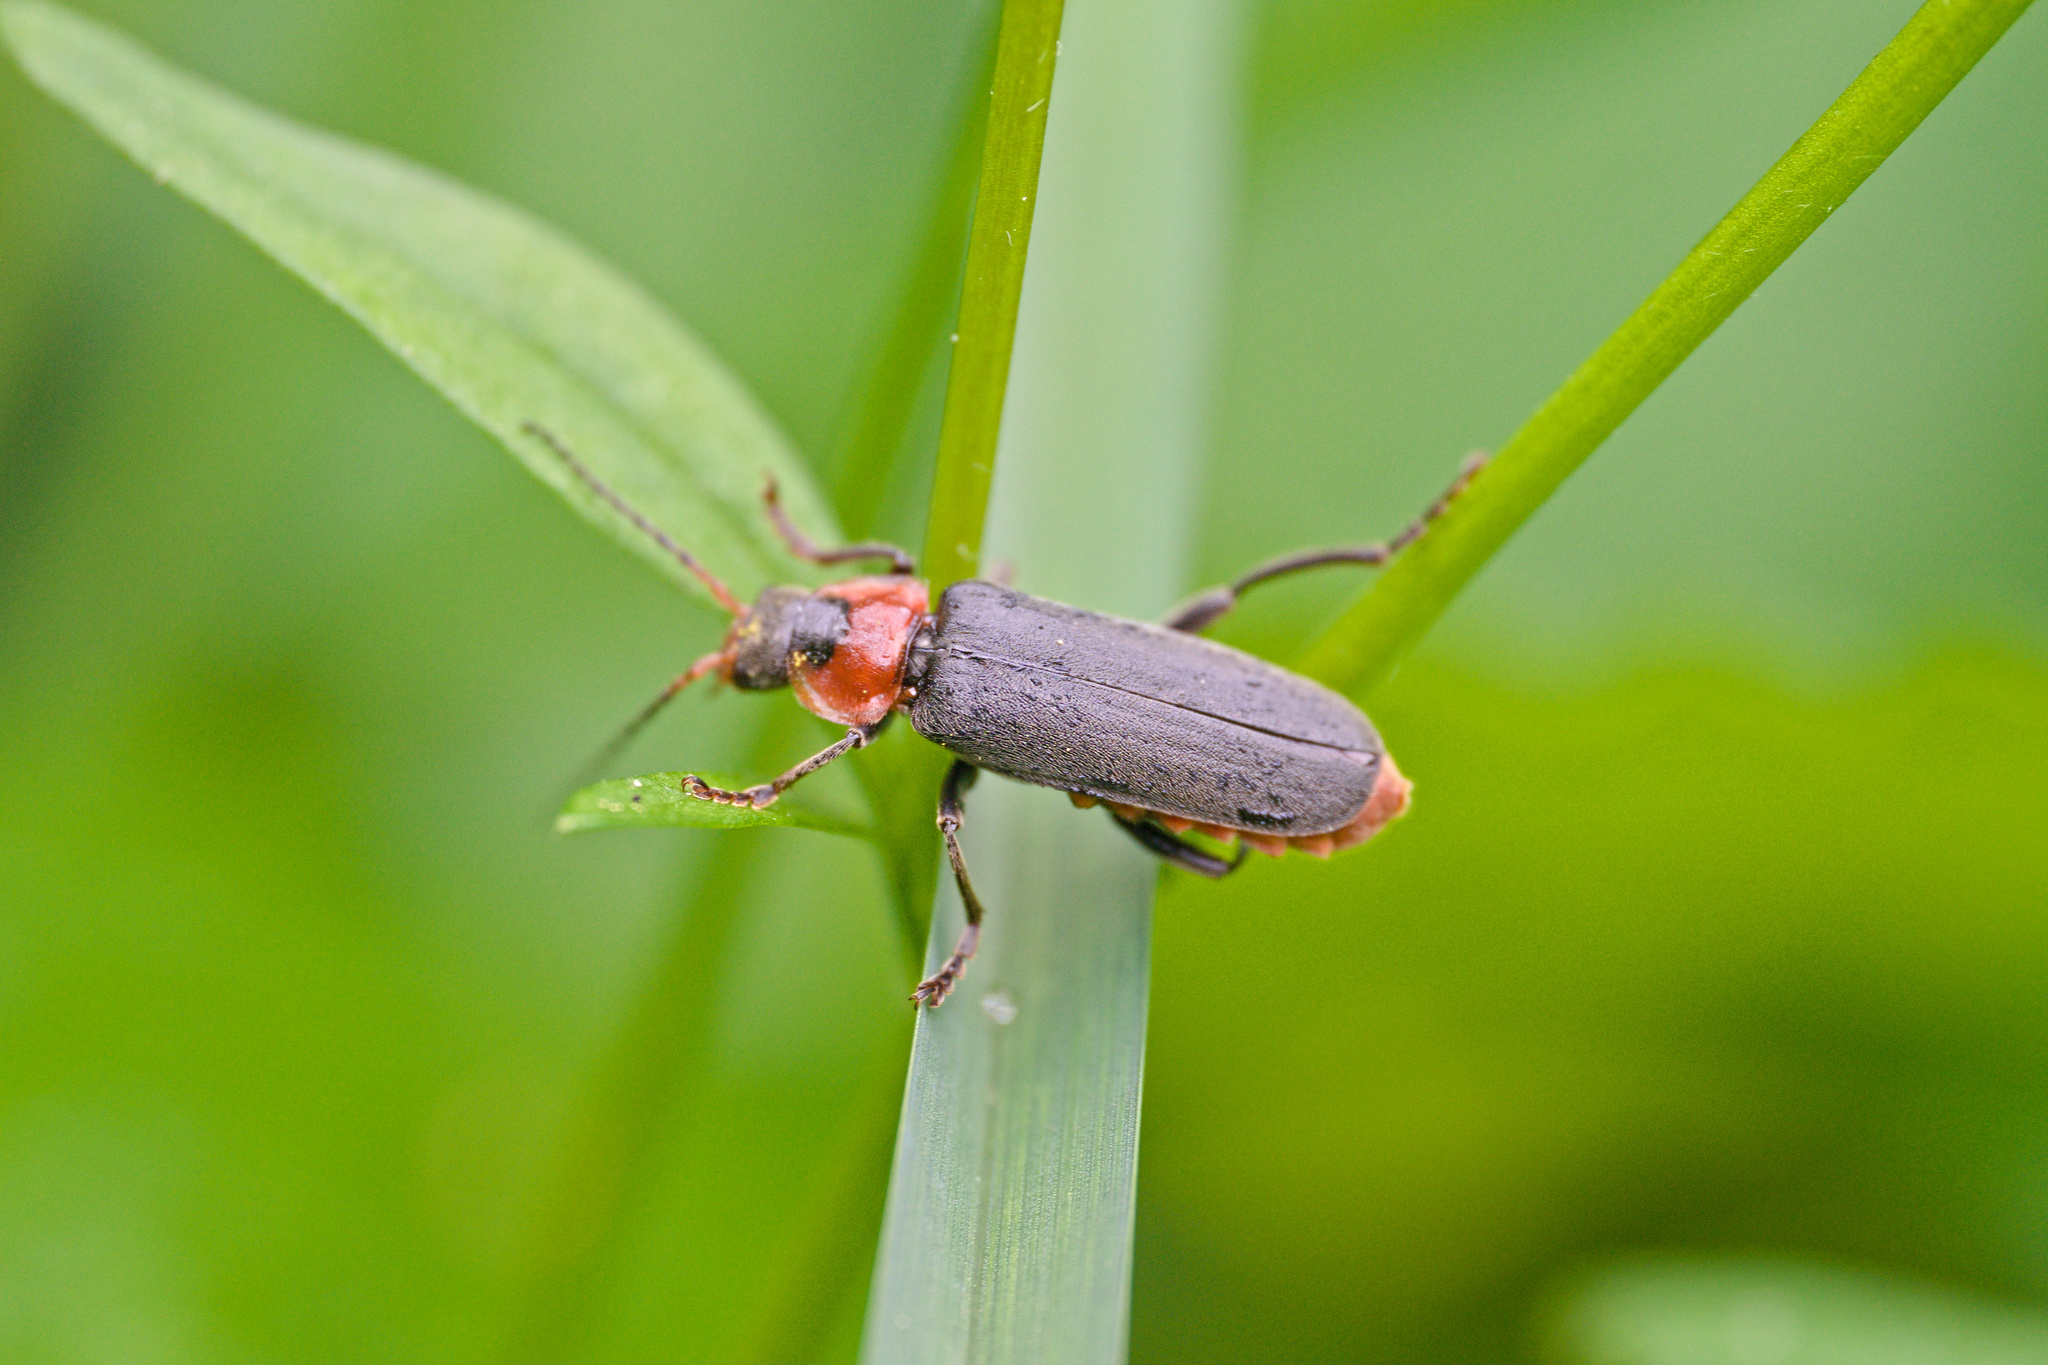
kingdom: Animalia
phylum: Arthropoda
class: Insecta
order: Coleoptera
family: Cantharidae
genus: Cantharis
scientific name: Cantharis fusca
